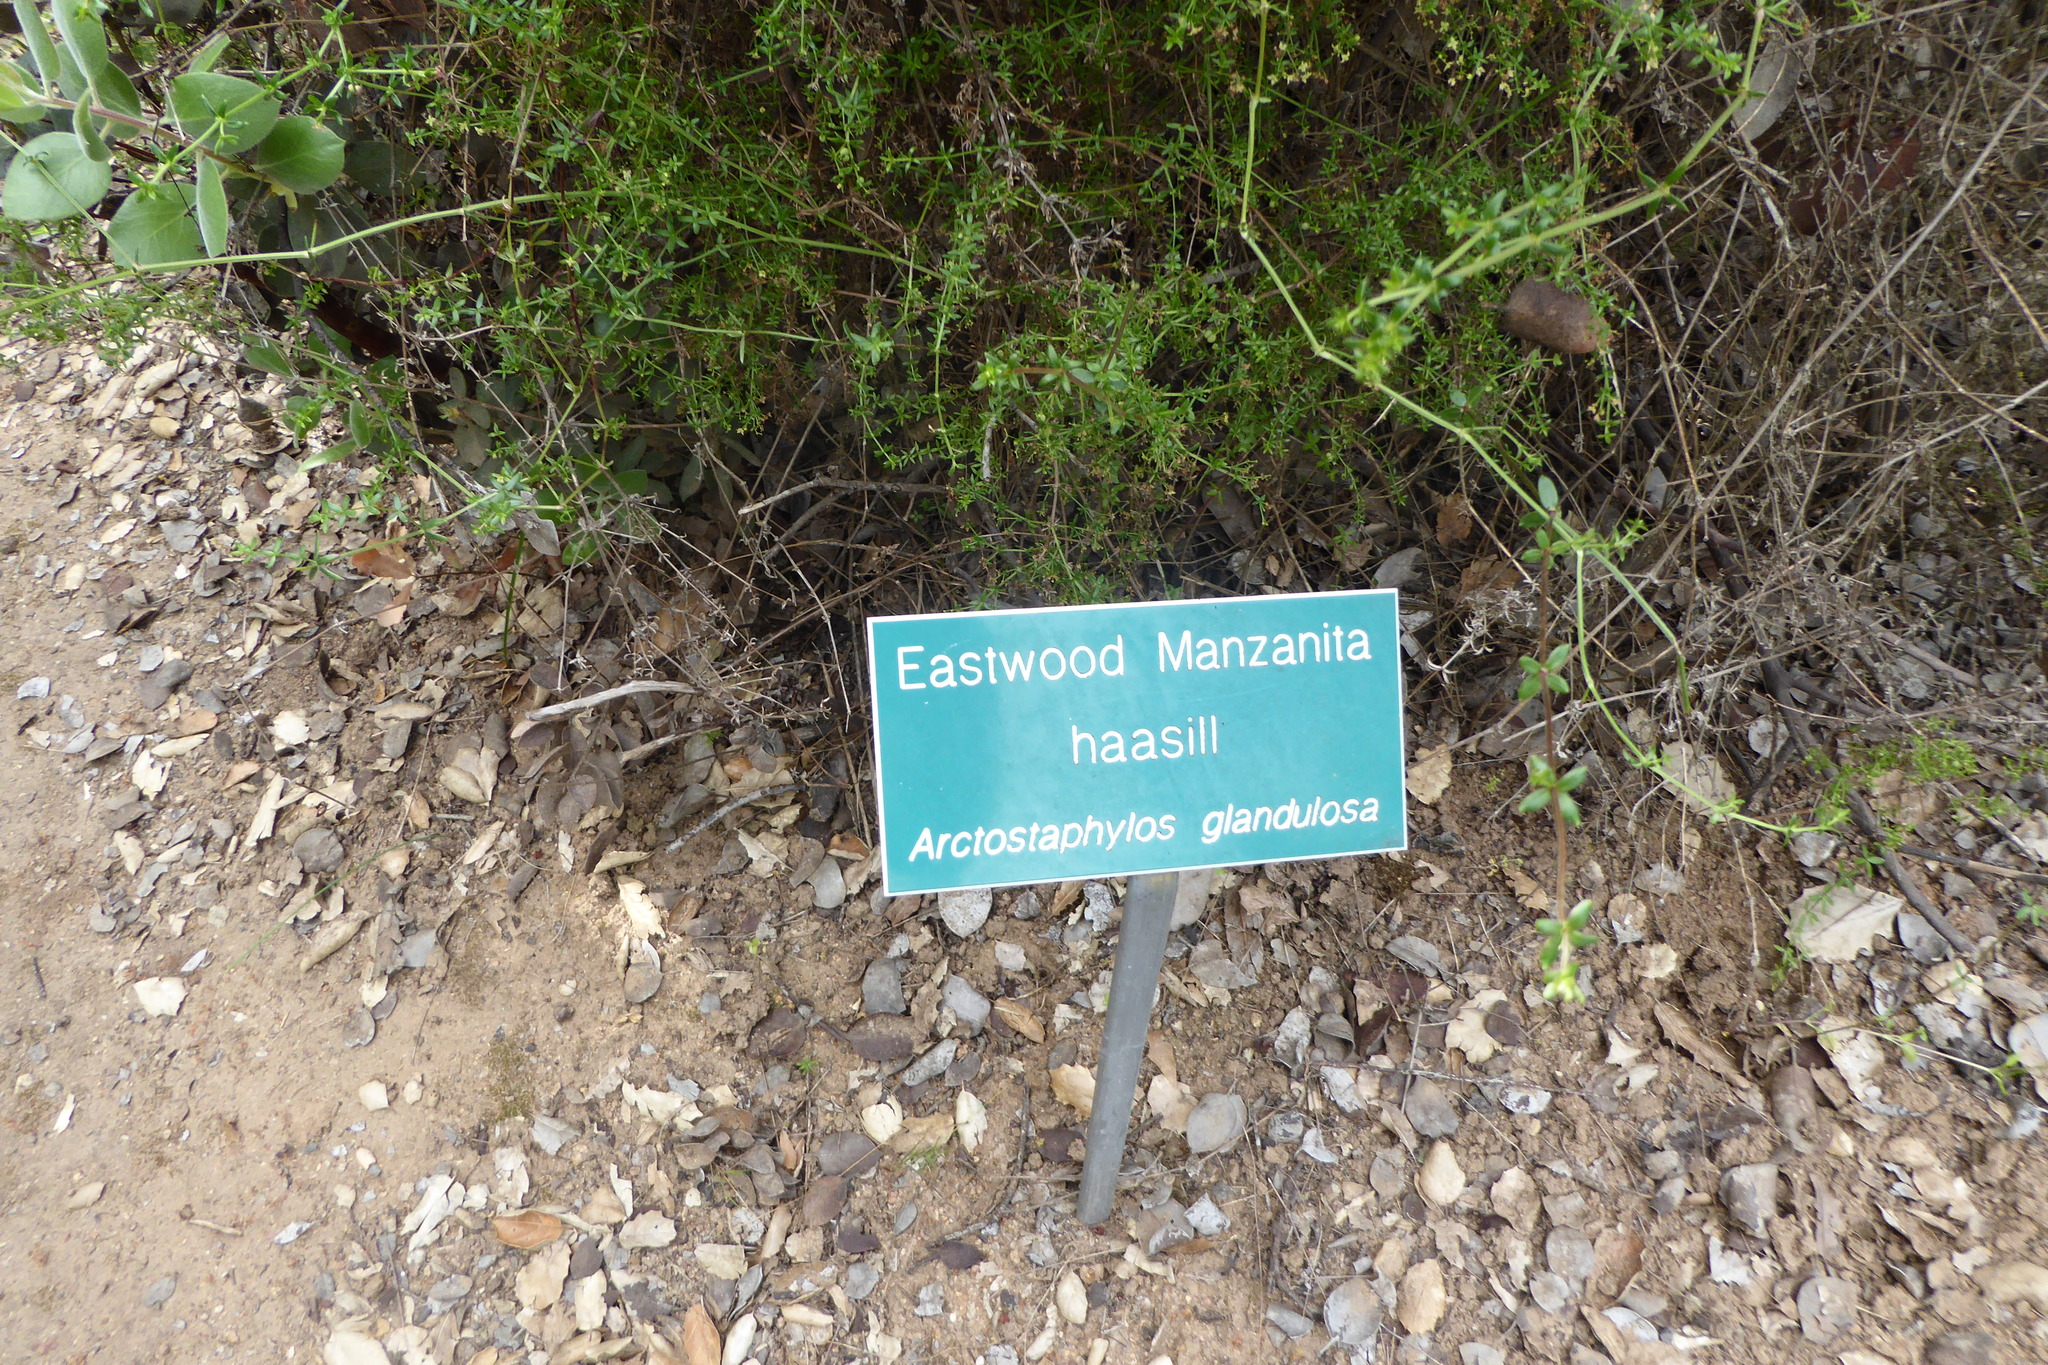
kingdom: Plantae
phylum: Tracheophyta
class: Magnoliopsida
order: Ericales
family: Ericaceae
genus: Arctostaphylos
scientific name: Arctostaphylos glandulosa
